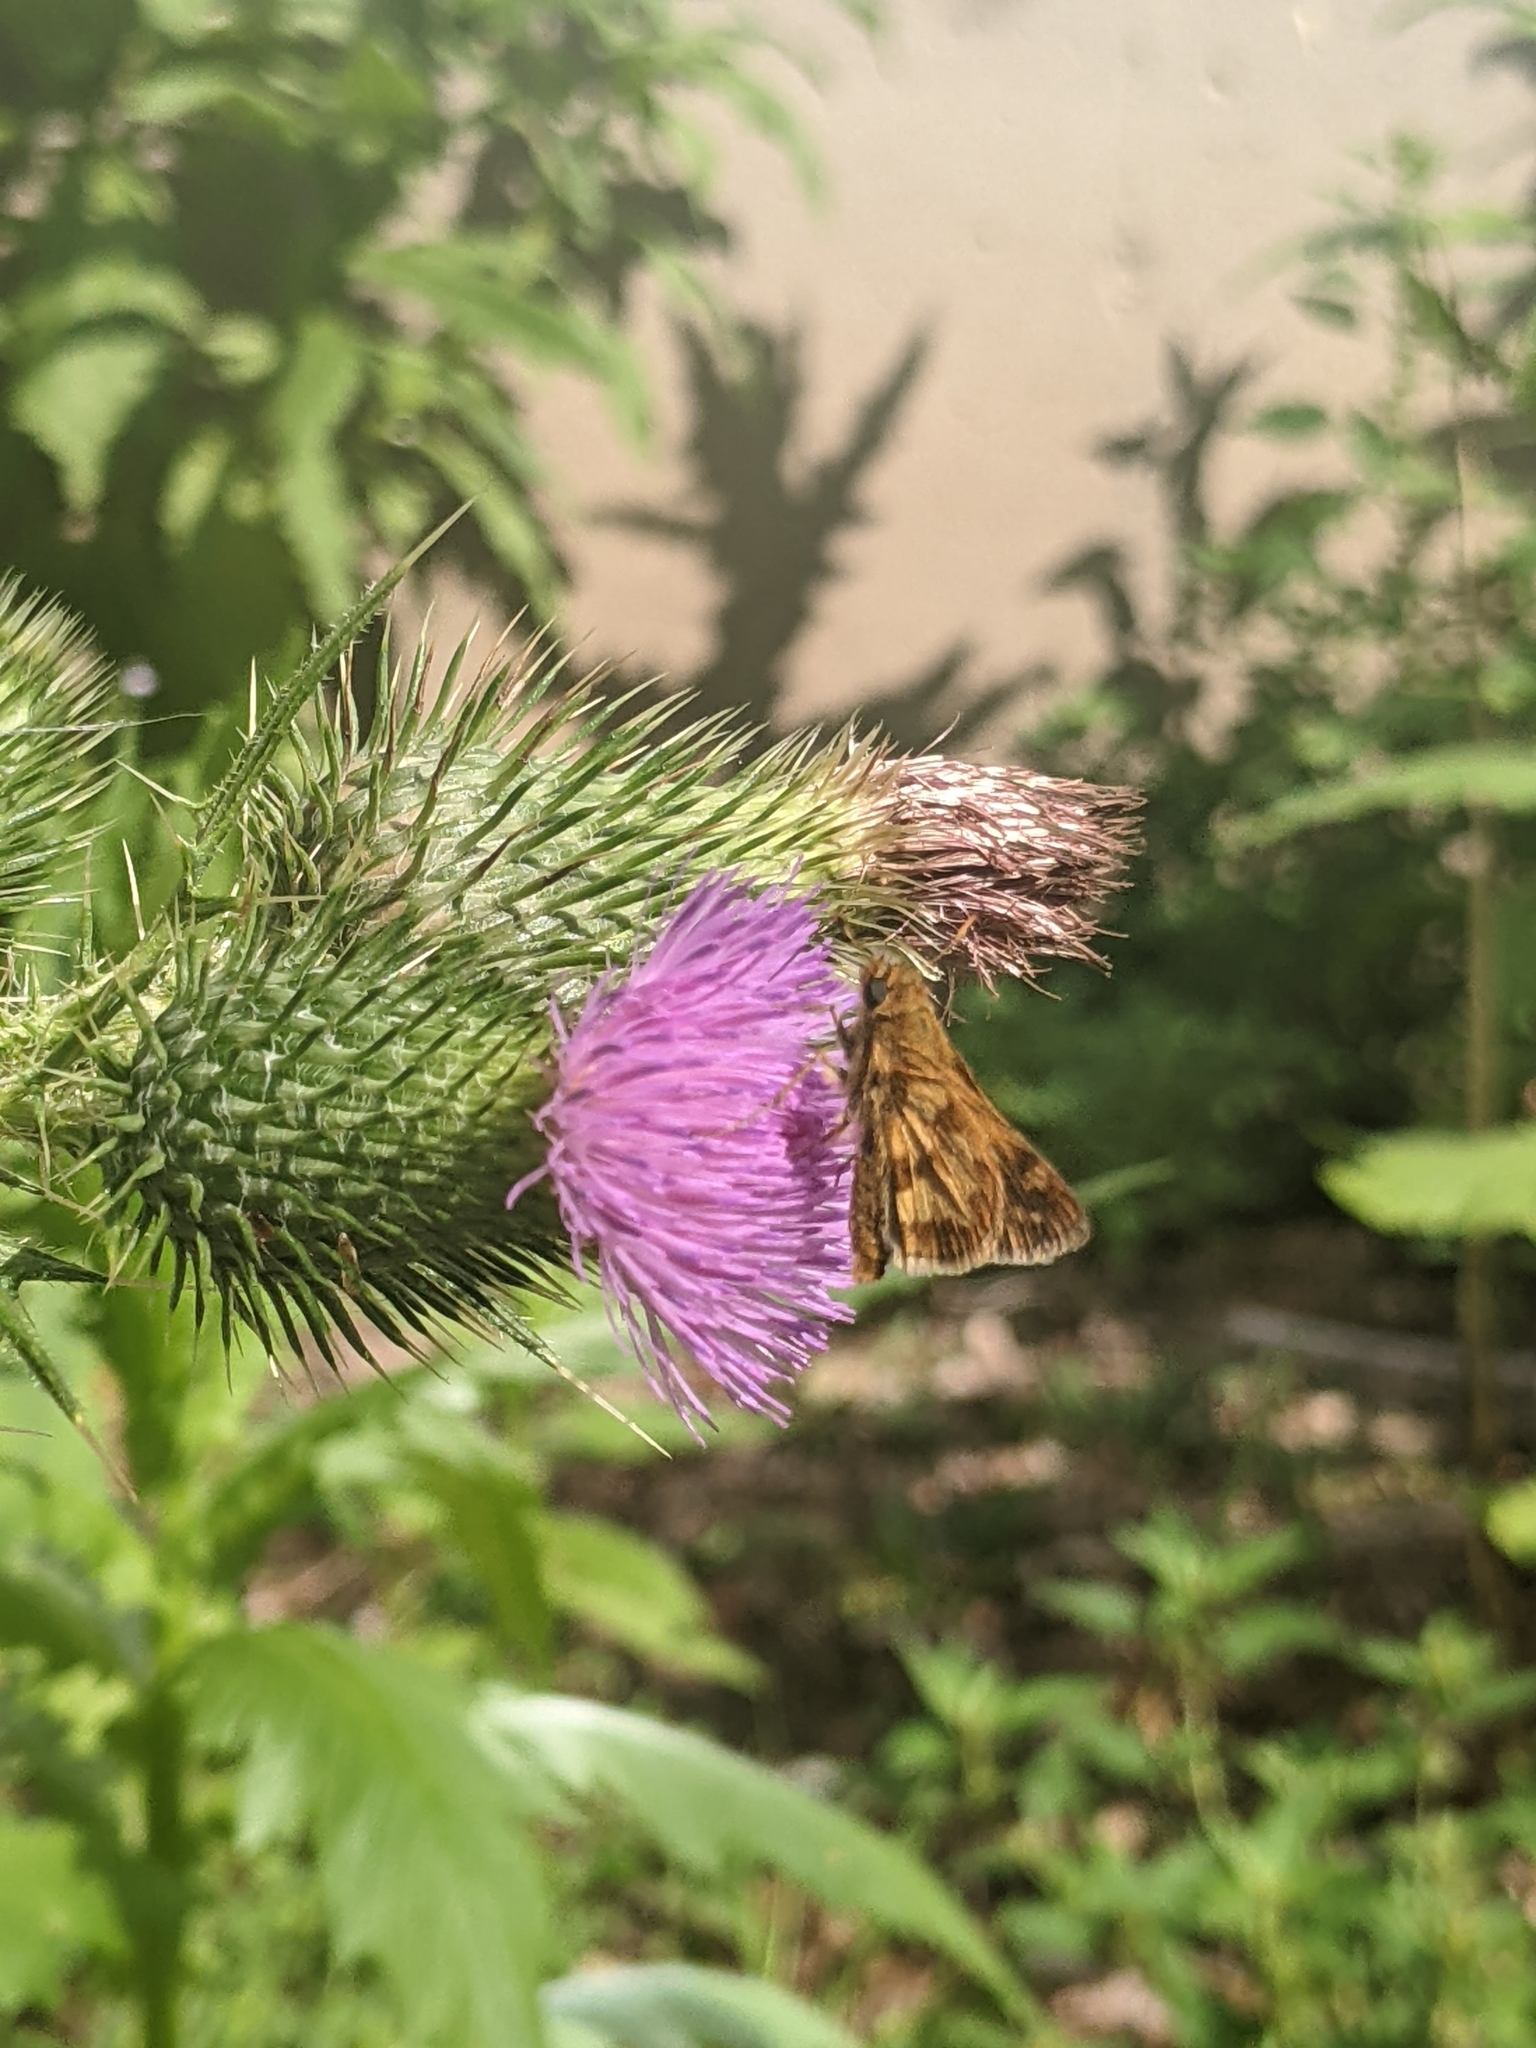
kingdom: Animalia
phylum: Arthropoda
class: Insecta
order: Lepidoptera
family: Hesperiidae
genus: Polites
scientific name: Polites coras
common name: Peck's skipper
